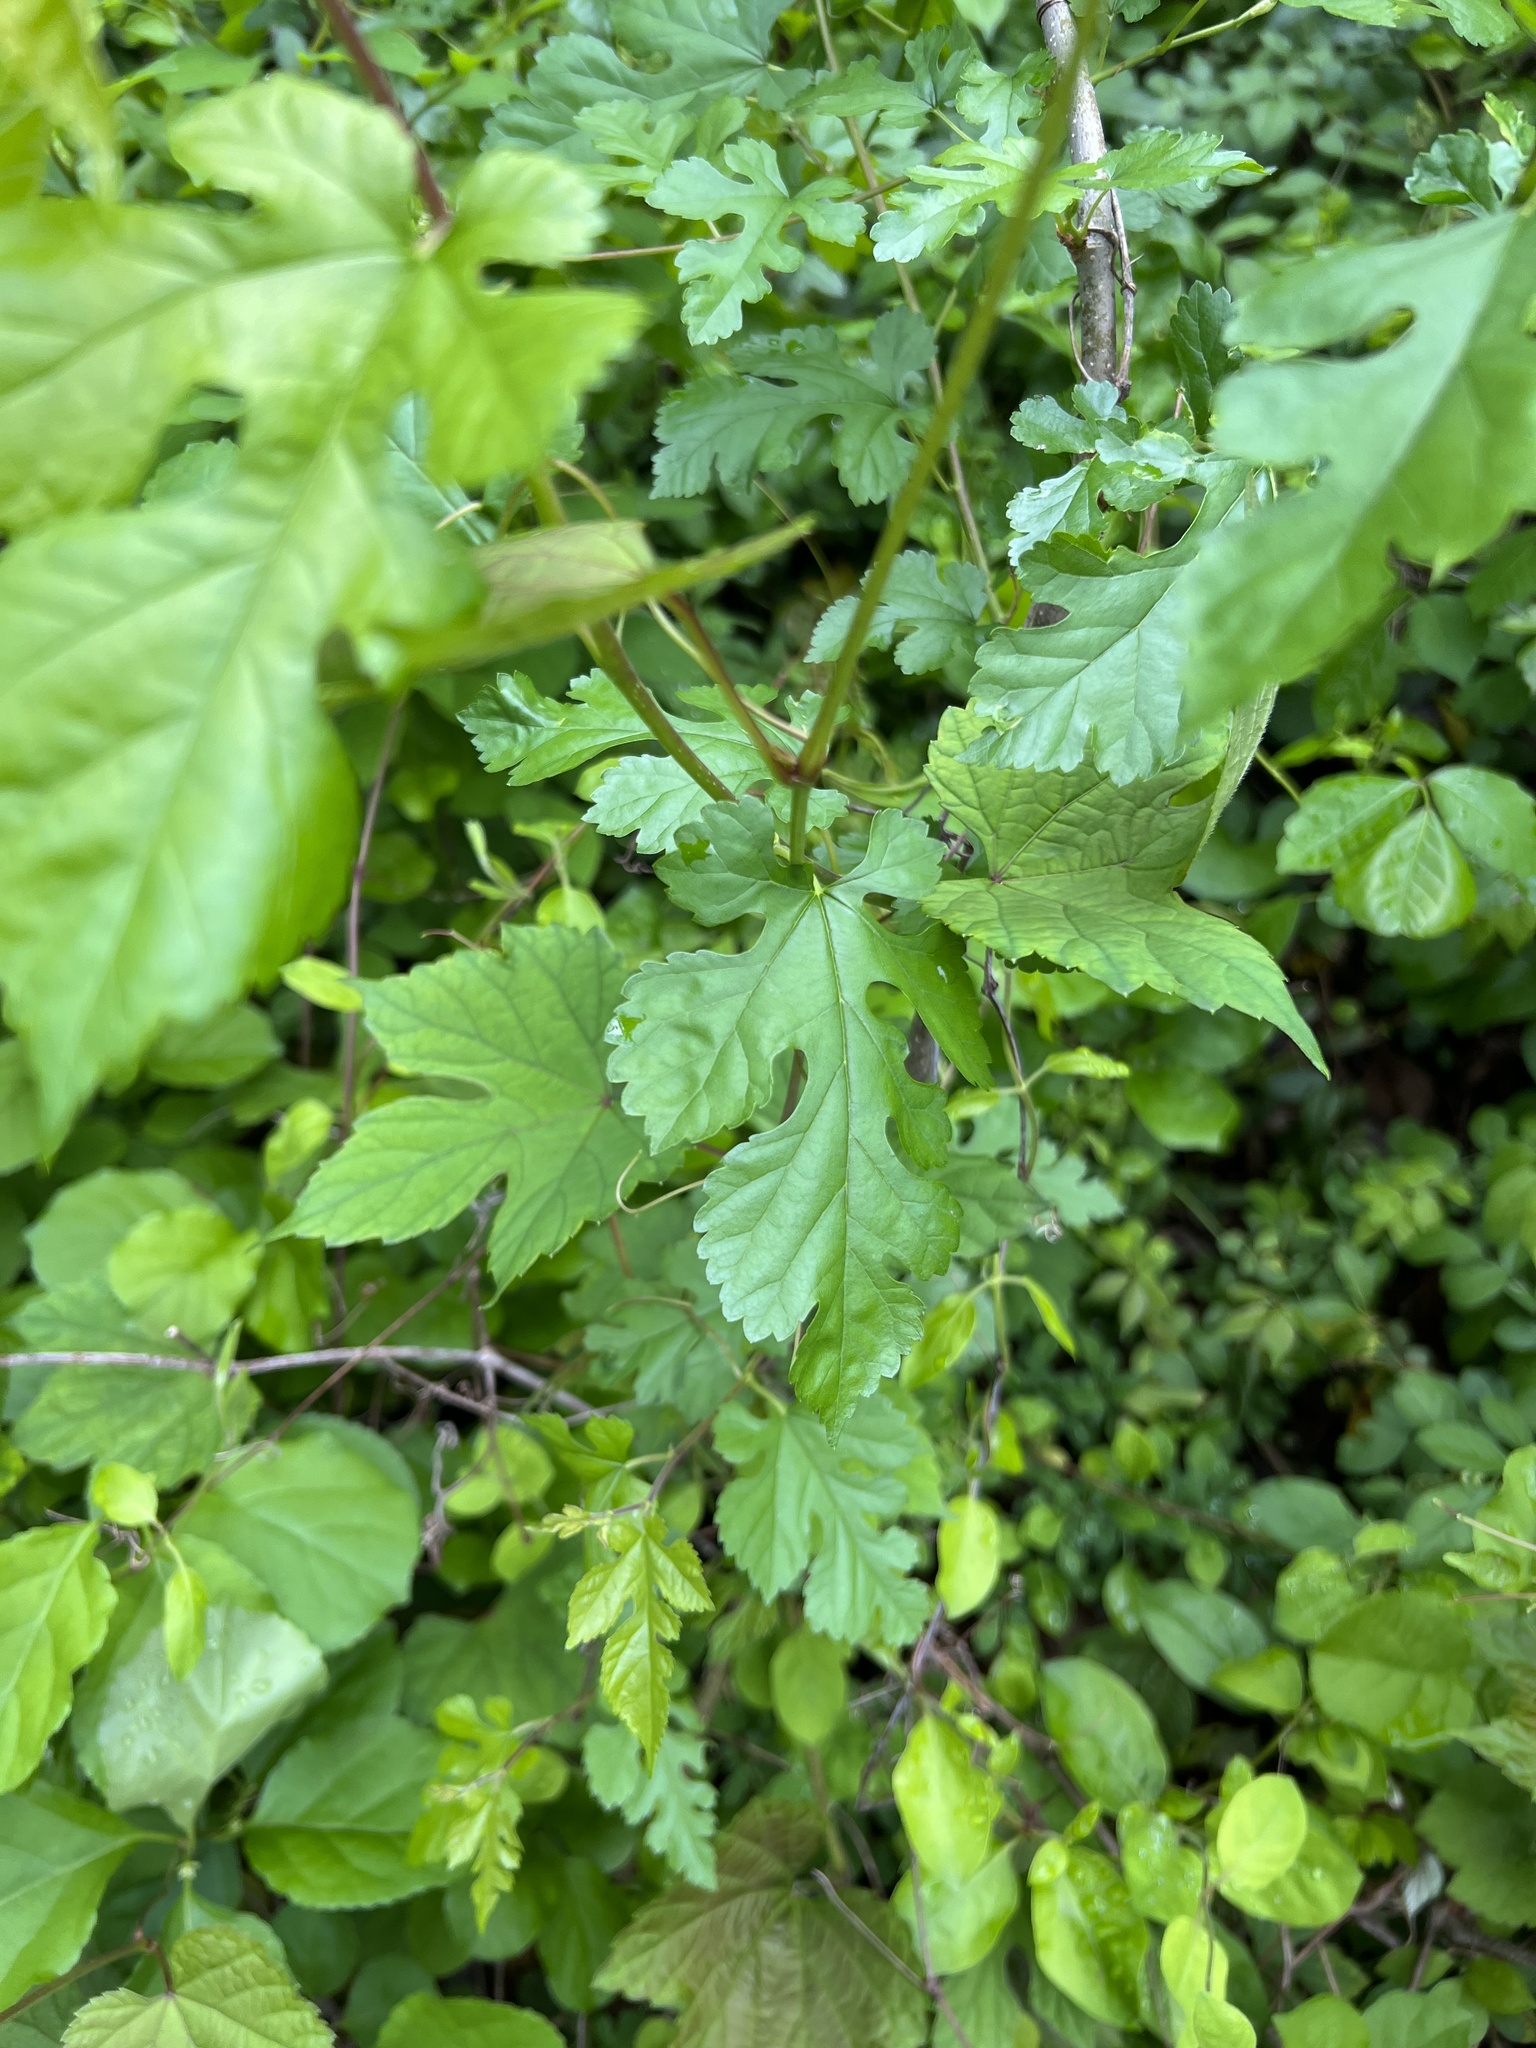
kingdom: Plantae
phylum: Tracheophyta
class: Magnoliopsida
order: Rosales
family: Moraceae
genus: Morus
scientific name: Morus alba
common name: White mulberry
